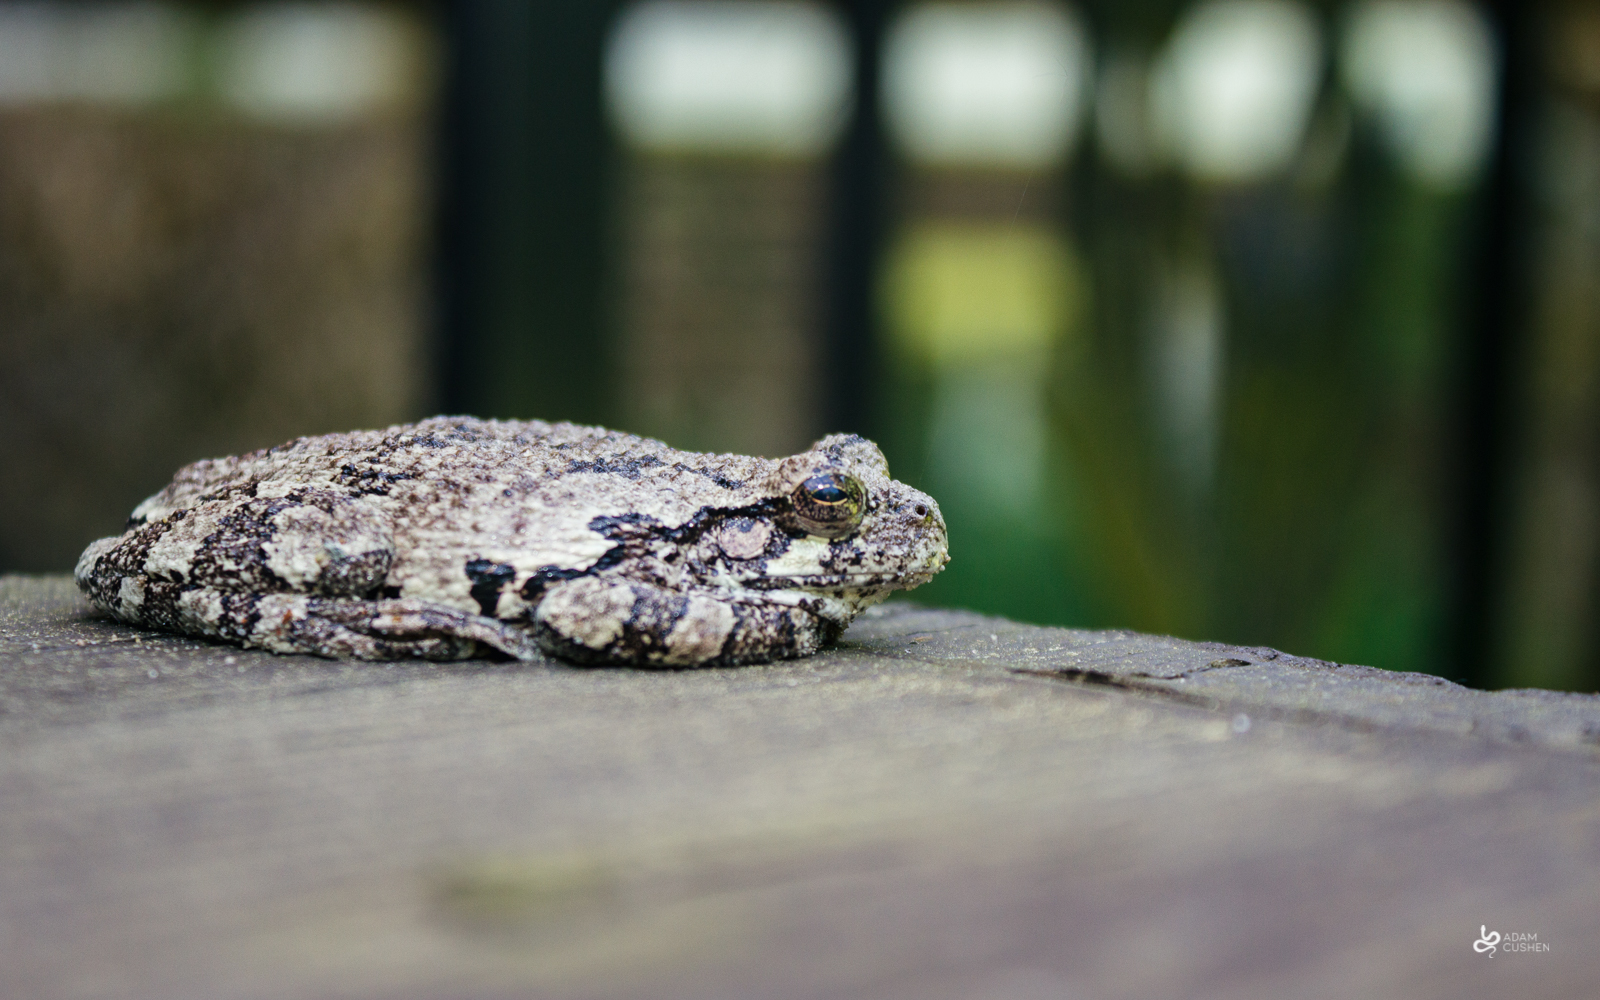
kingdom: Animalia
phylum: Chordata
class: Amphibia
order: Anura
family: Hylidae
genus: Dryophytes
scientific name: Dryophytes versicolor
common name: Gray treefrog
